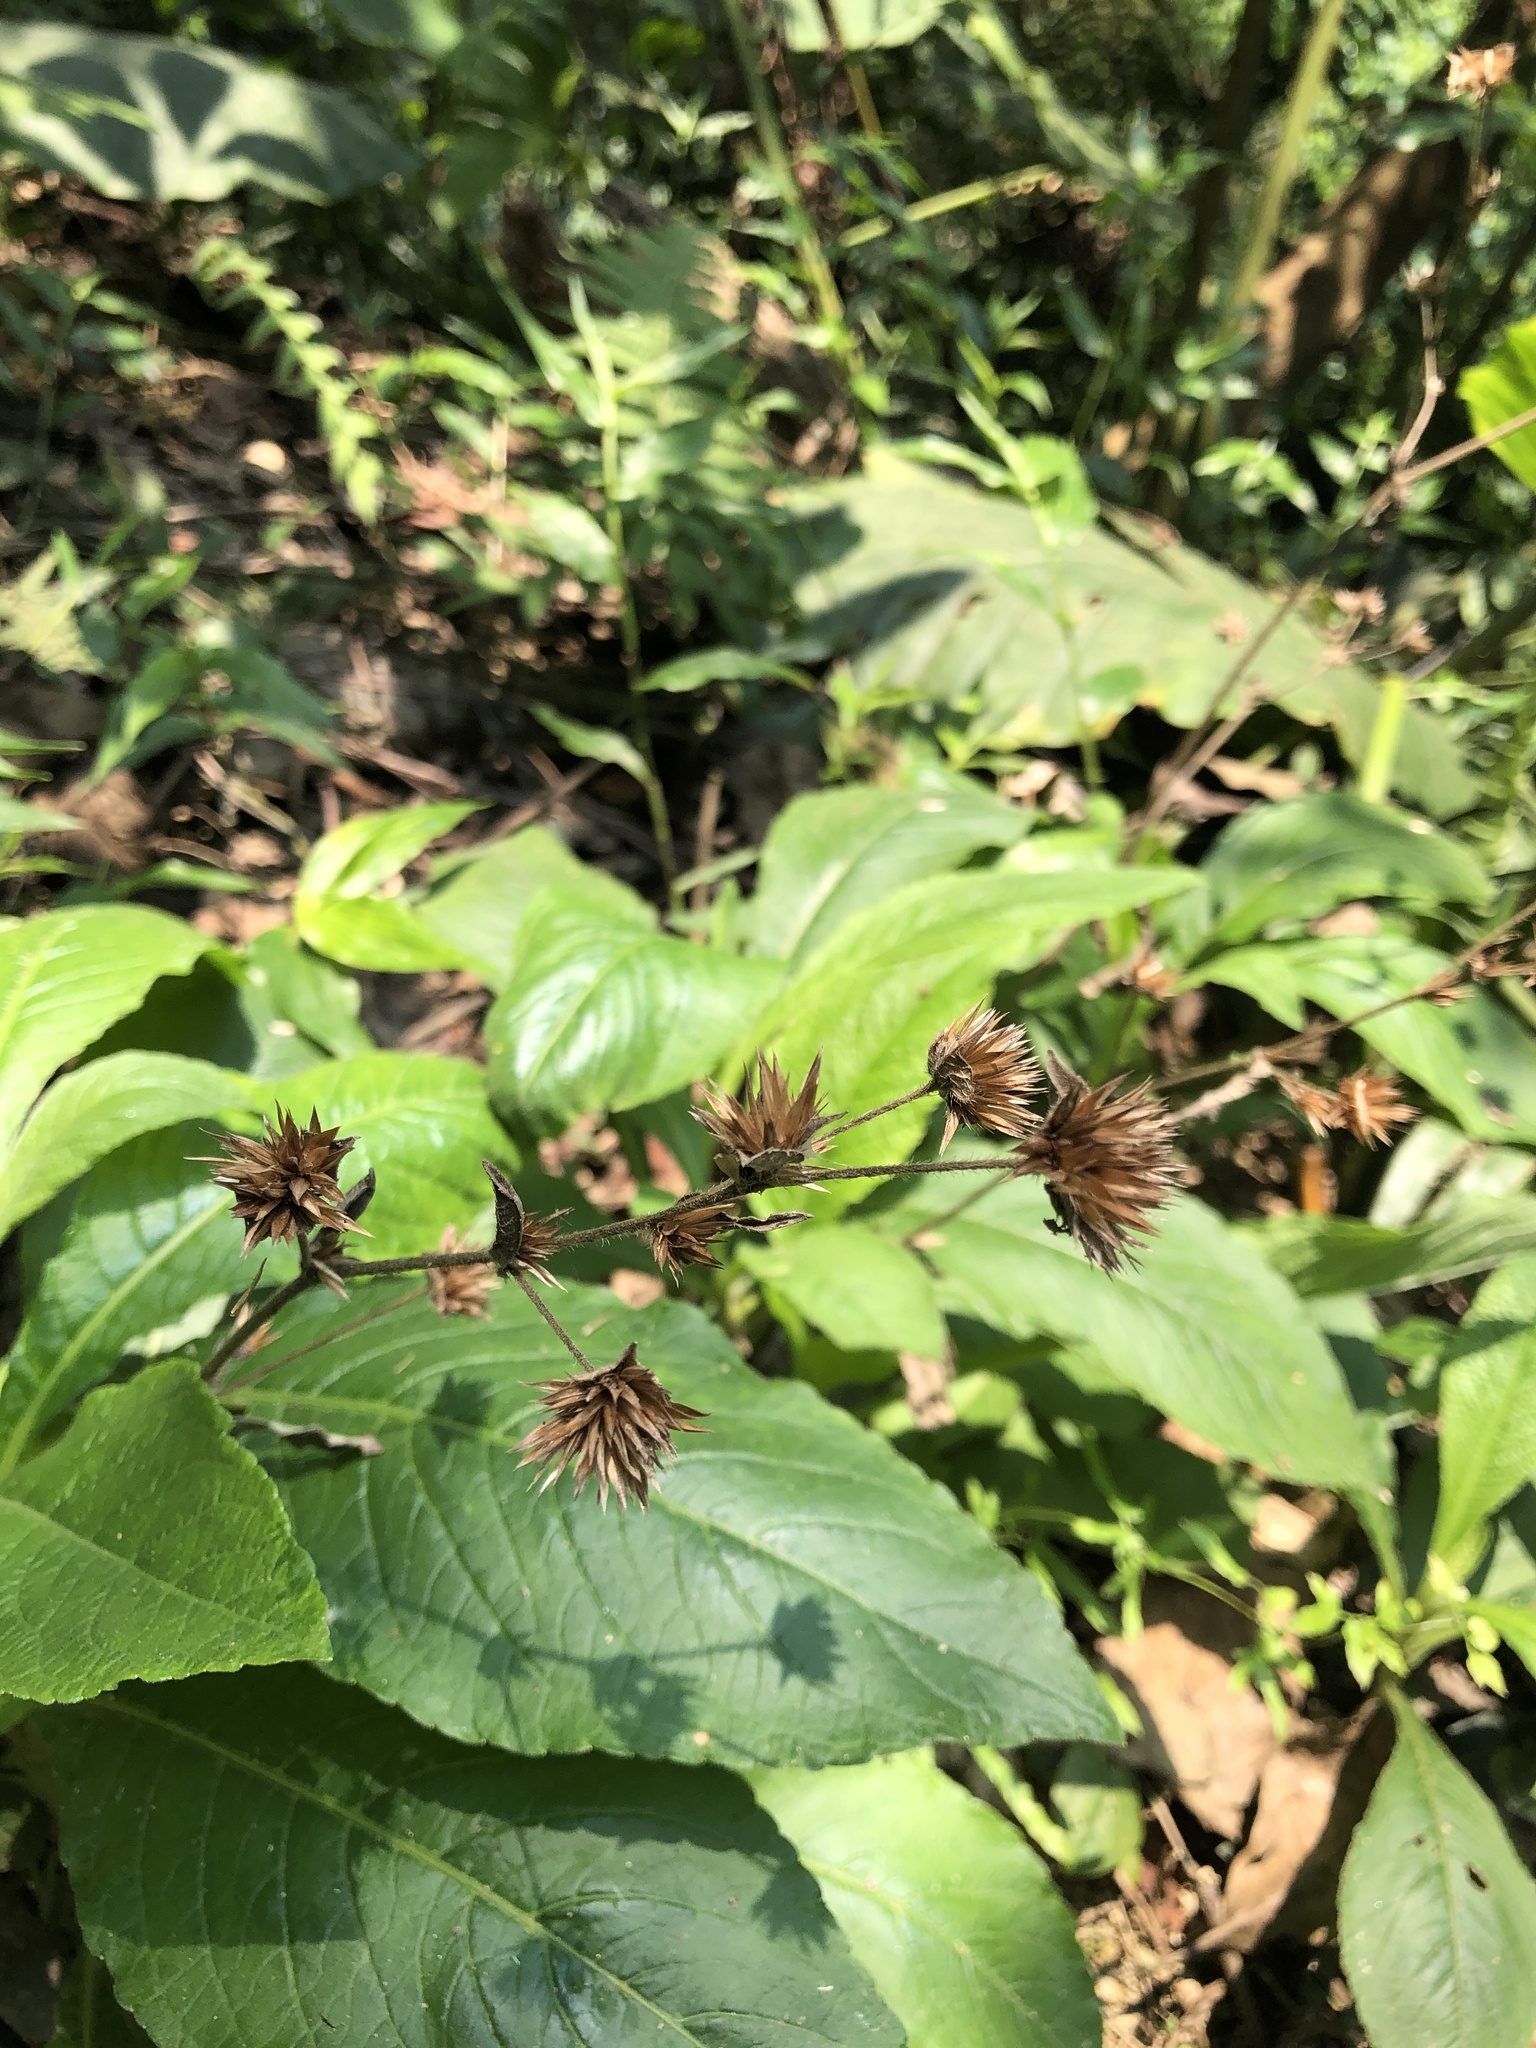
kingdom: Plantae
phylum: Tracheophyta
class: Magnoliopsida
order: Asterales
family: Asteraceae
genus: Elephantopus
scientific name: Elephantopus mollis
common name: Soft elephantsfoot
